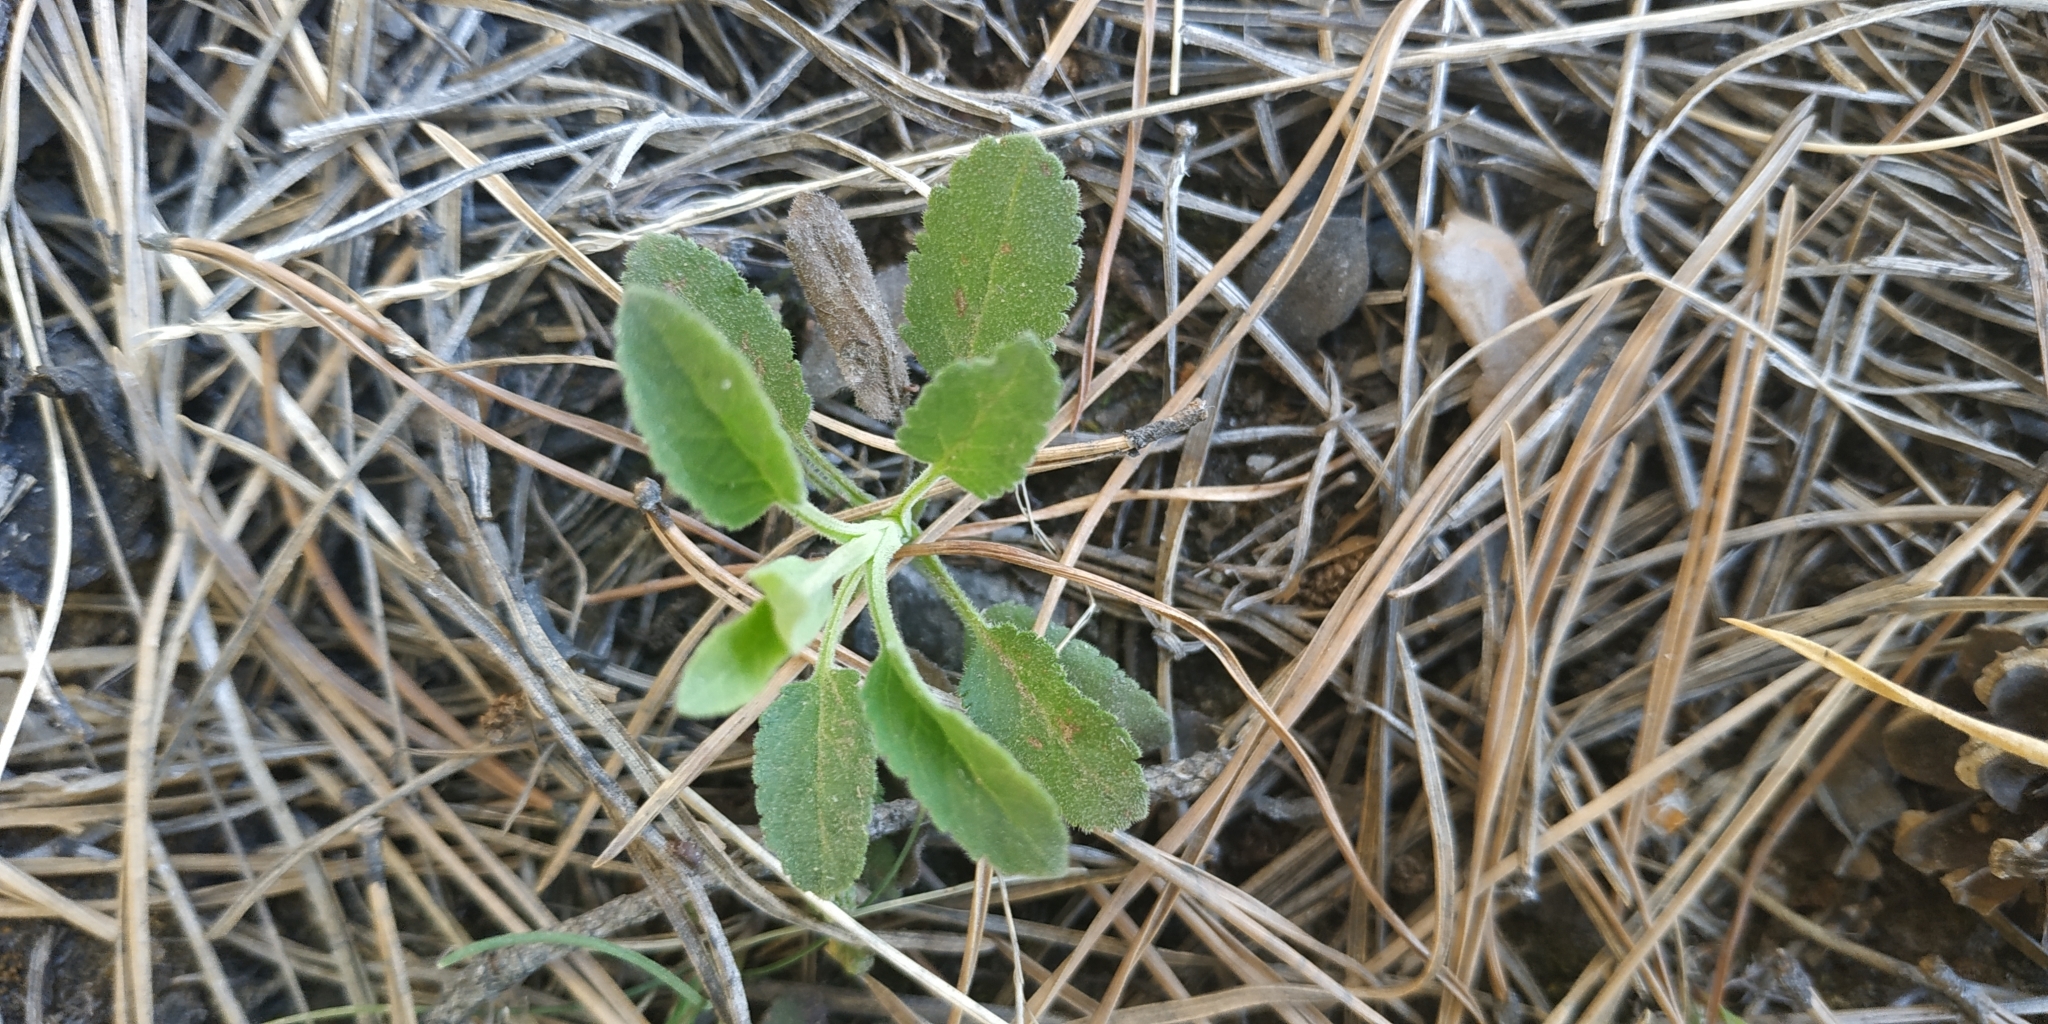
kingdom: Plantae
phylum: Tracheophyta
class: Magnoliopsida
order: Lamiales
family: Plantaginaceae
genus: Veronica
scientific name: Veronica spicata
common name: Spiked speedwell
